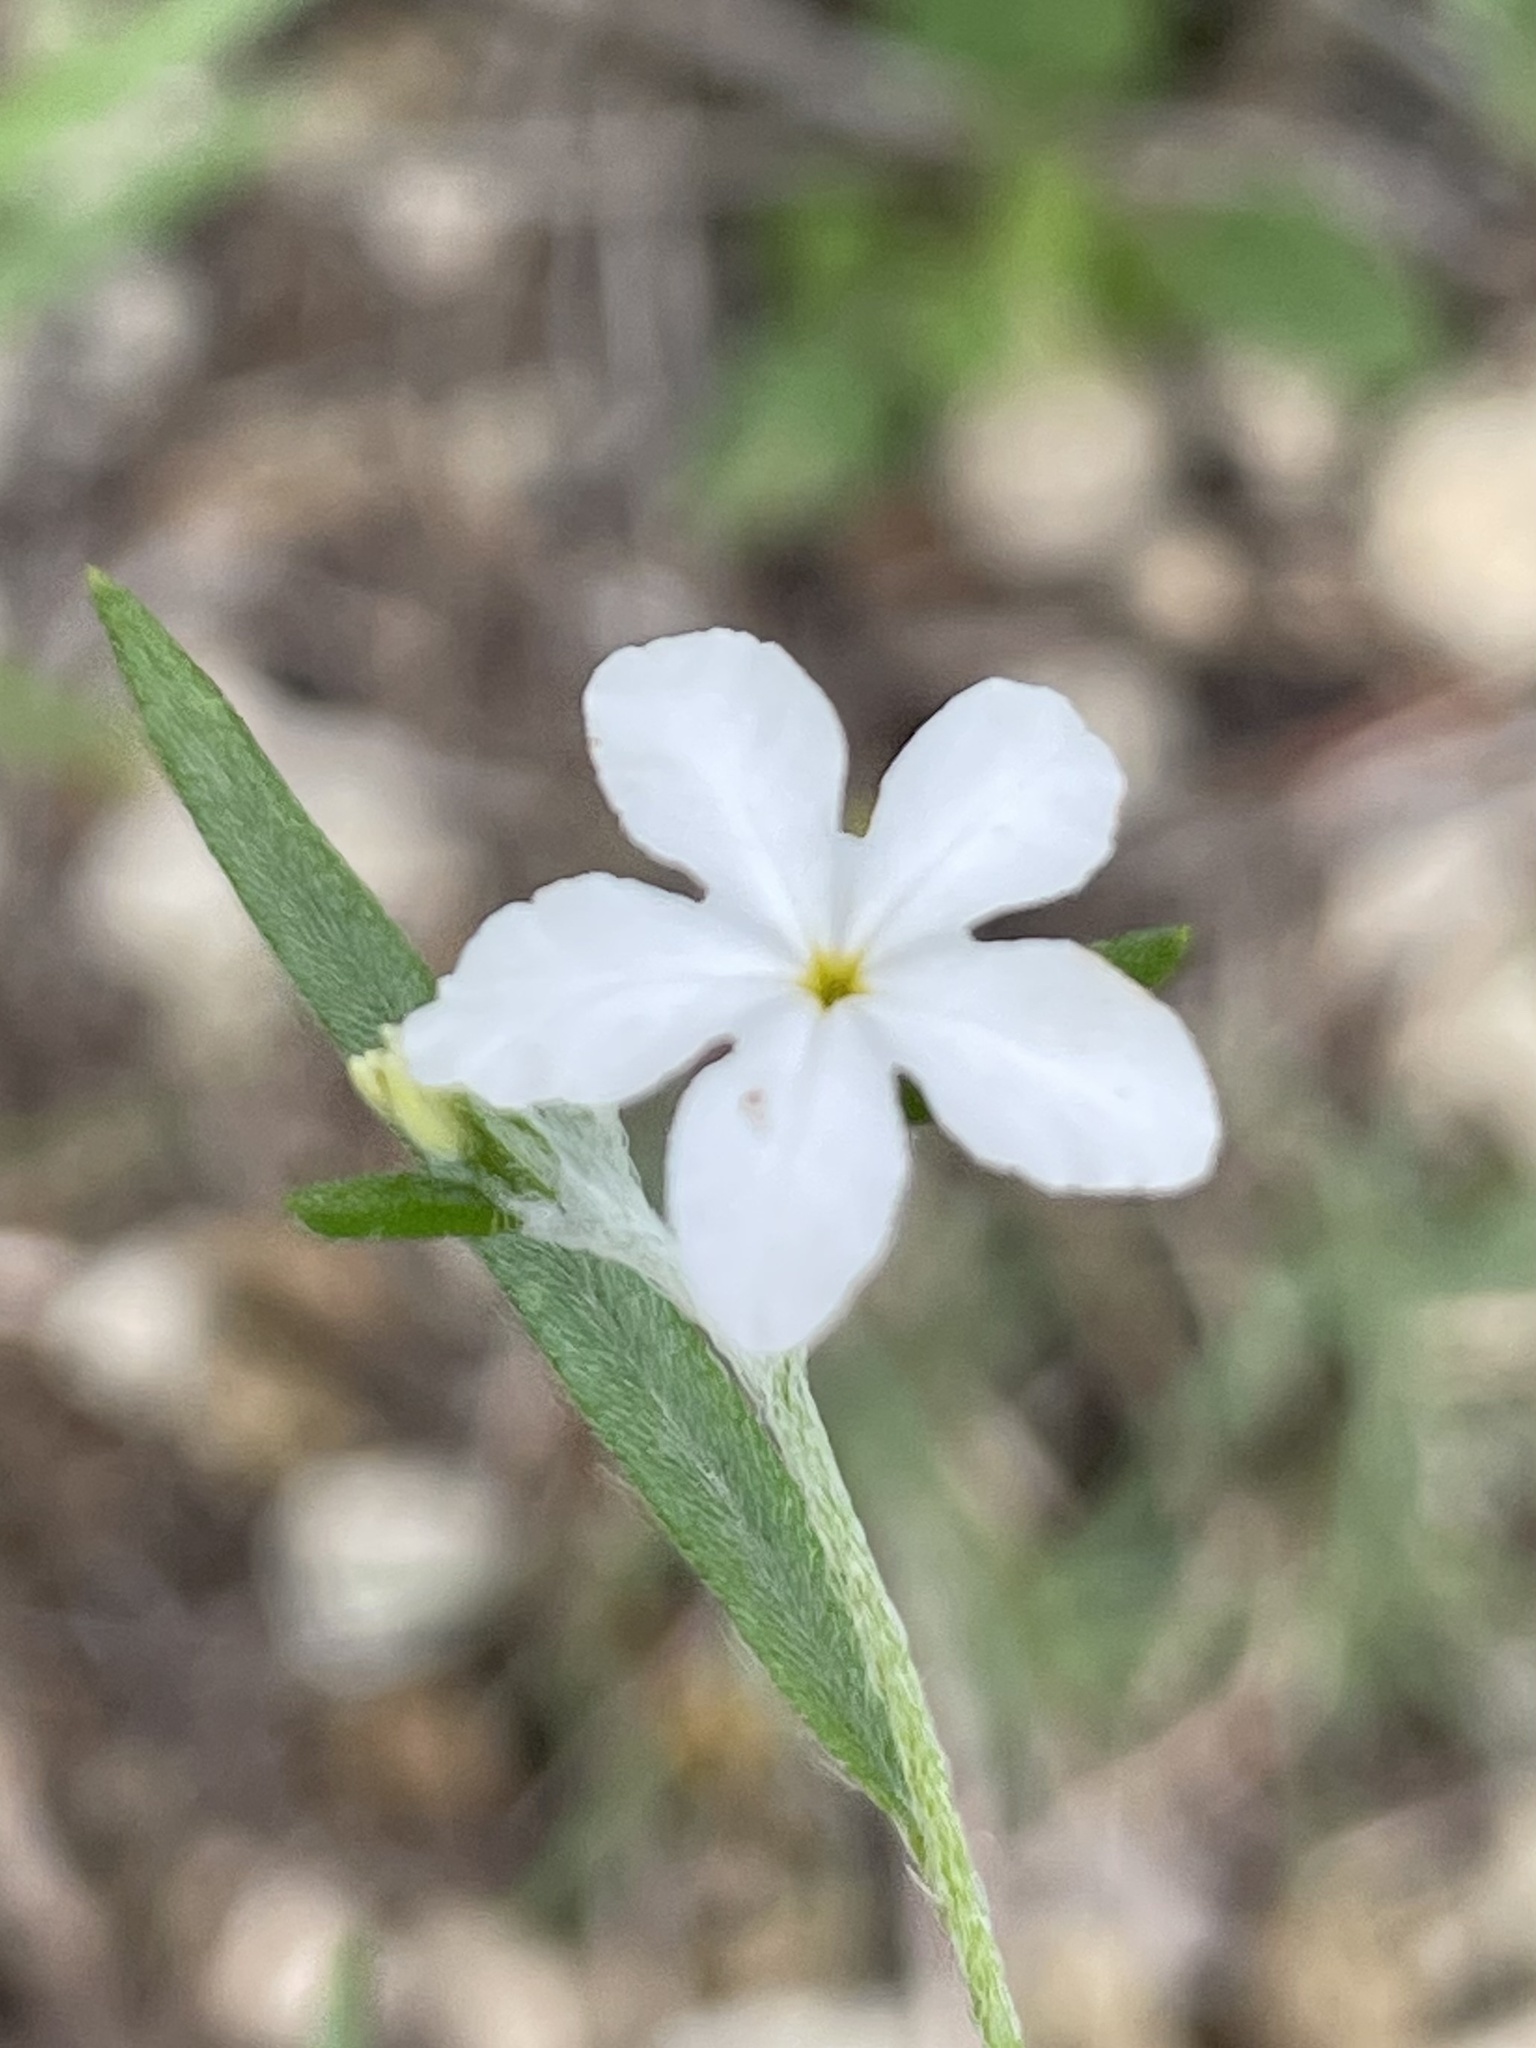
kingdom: Plantae
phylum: Tracheophyta
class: Magnoliopsida
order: Boraginales
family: Heliotropiaceae
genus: Euploca
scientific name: Euploca tenella
